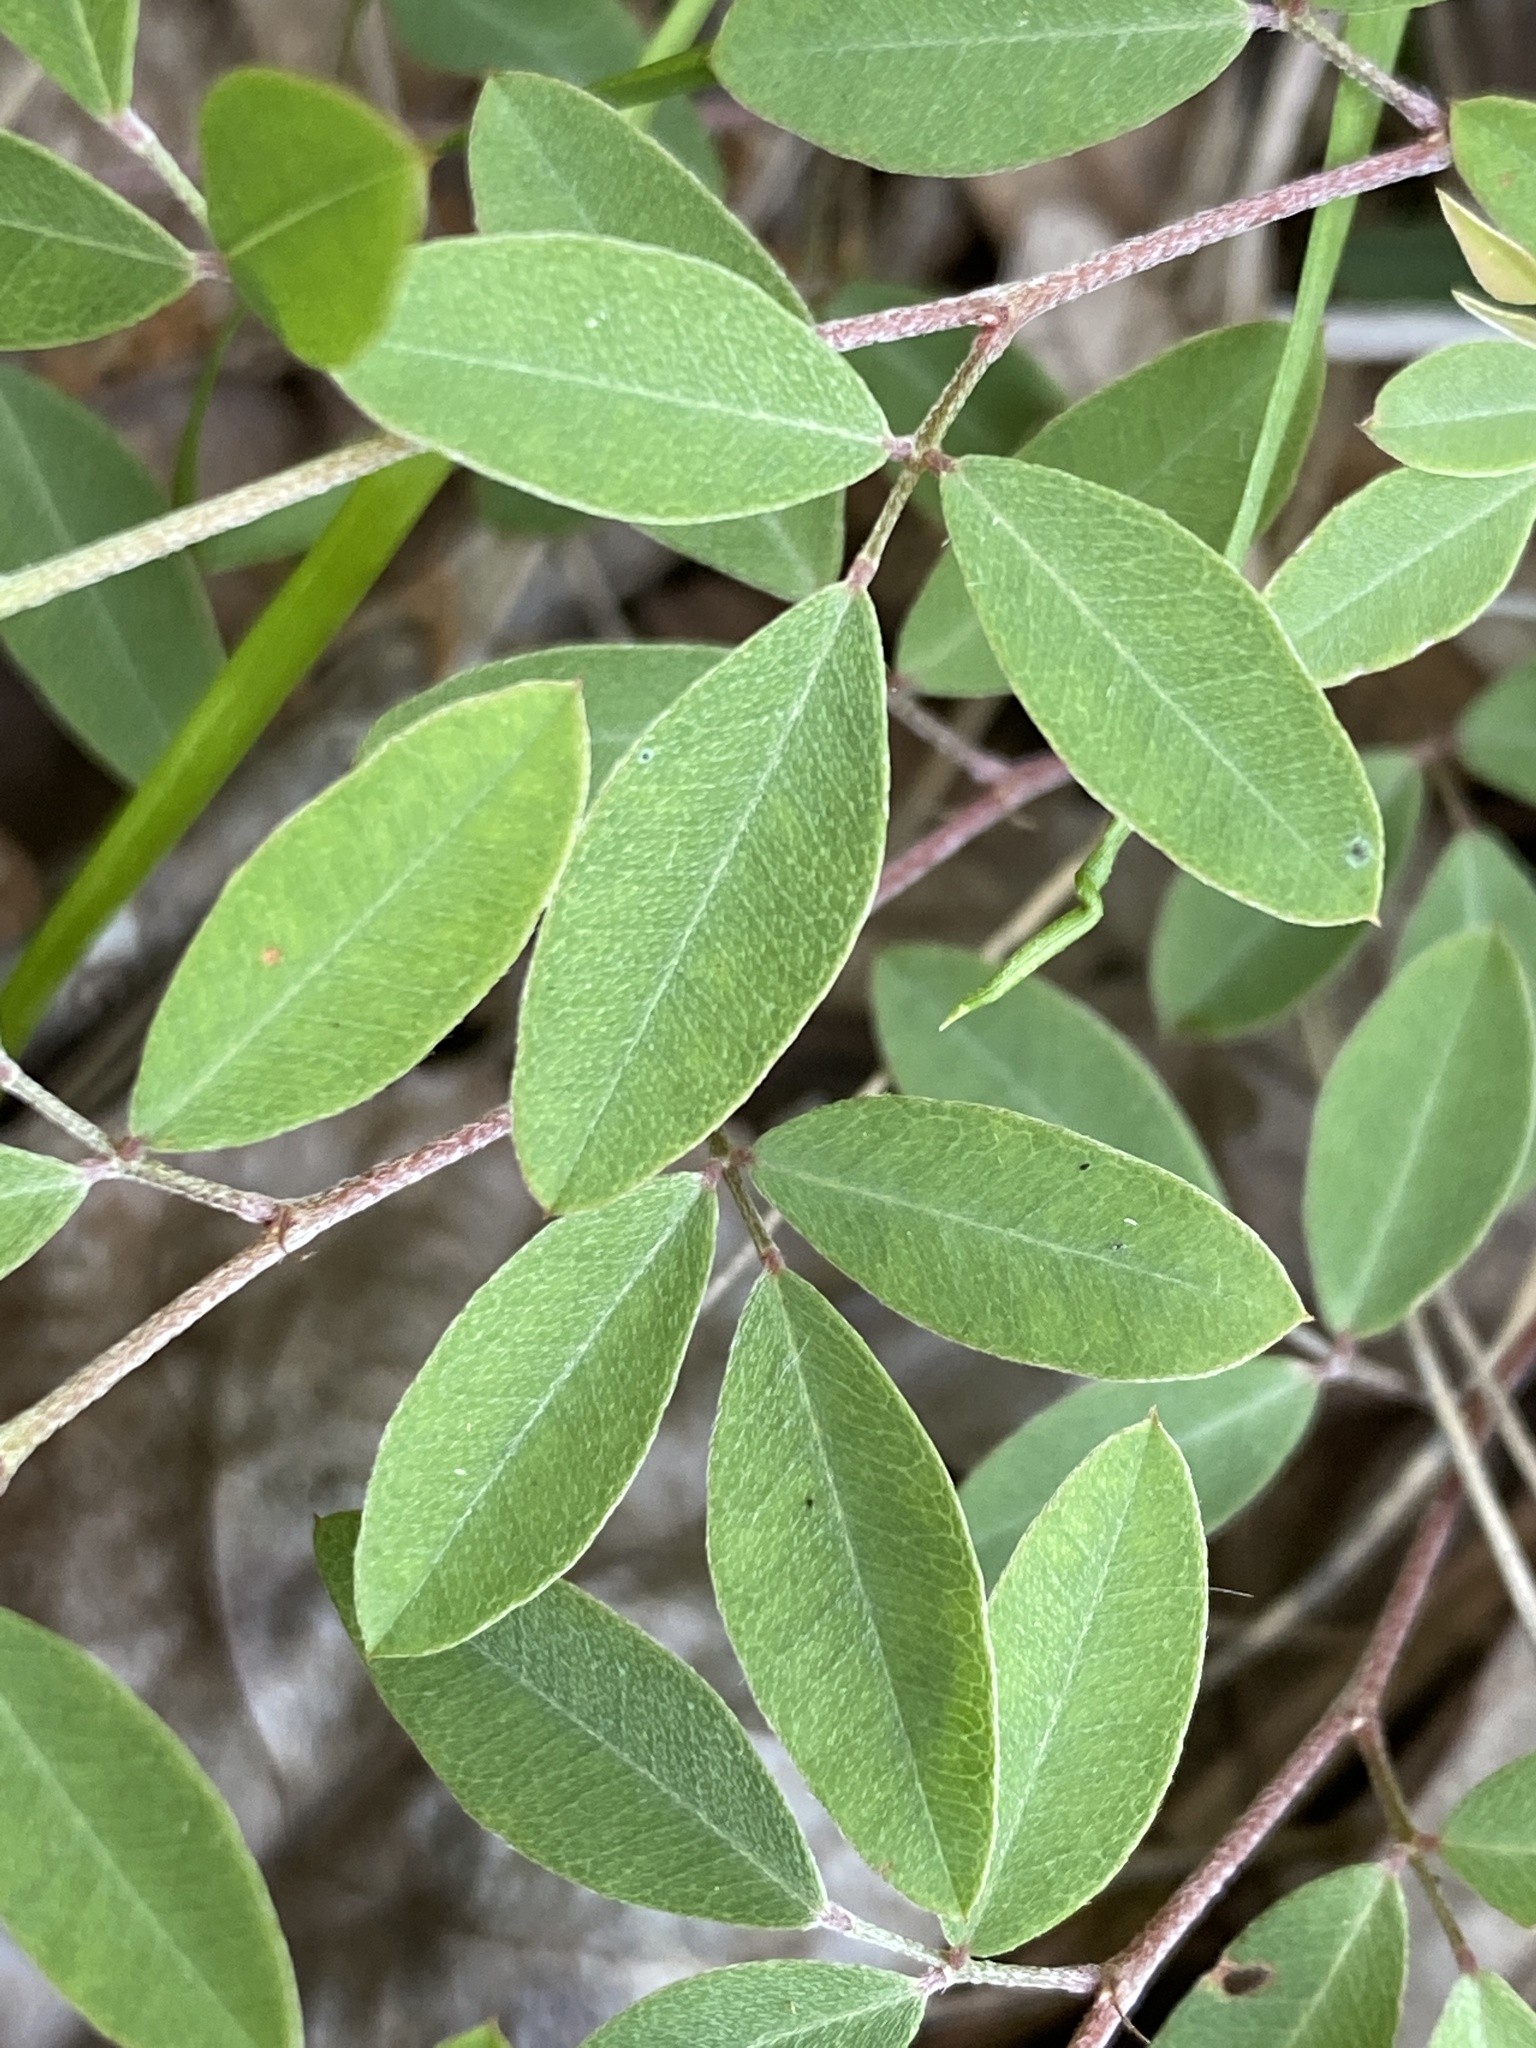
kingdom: Plantae
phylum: Tracheophyta
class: Magnoliopsida
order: Fabales
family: Fabaceae
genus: Lespedeza
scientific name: Lespedeza repens
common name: Creeping bush-clover
